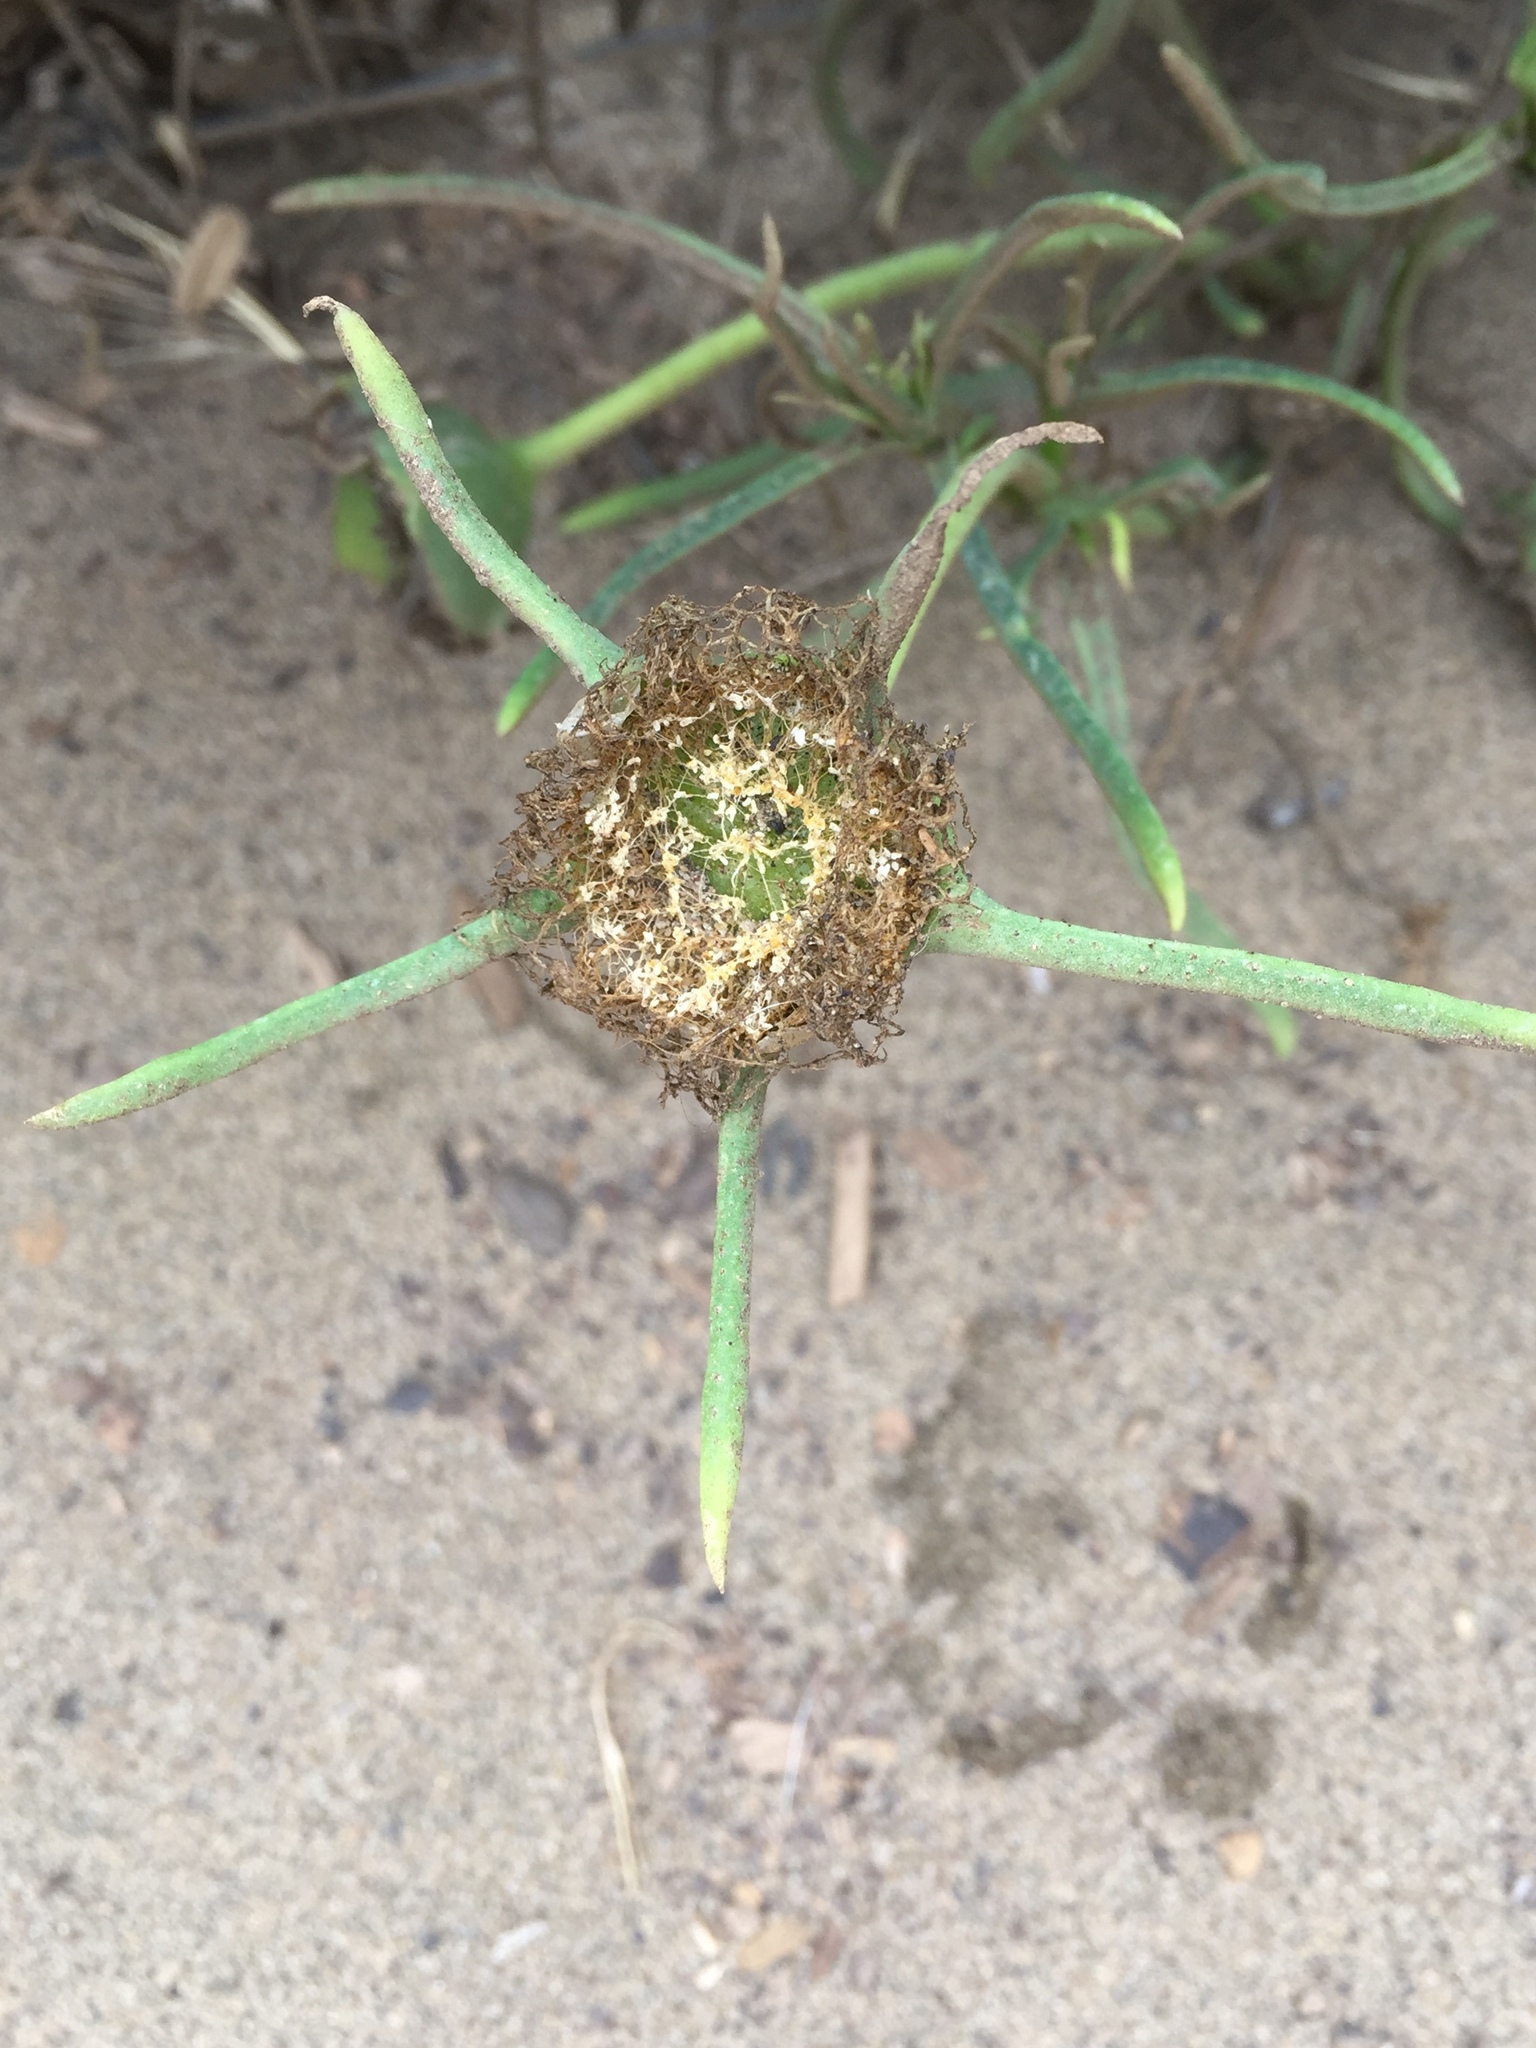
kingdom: Plantae
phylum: Tracheophyta
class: Magnoliopsida
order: Caryophyllales
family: Aizoaceae
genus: Conicosia
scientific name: Conicosia pugioniformis
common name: Narrow-leaved iceplant
